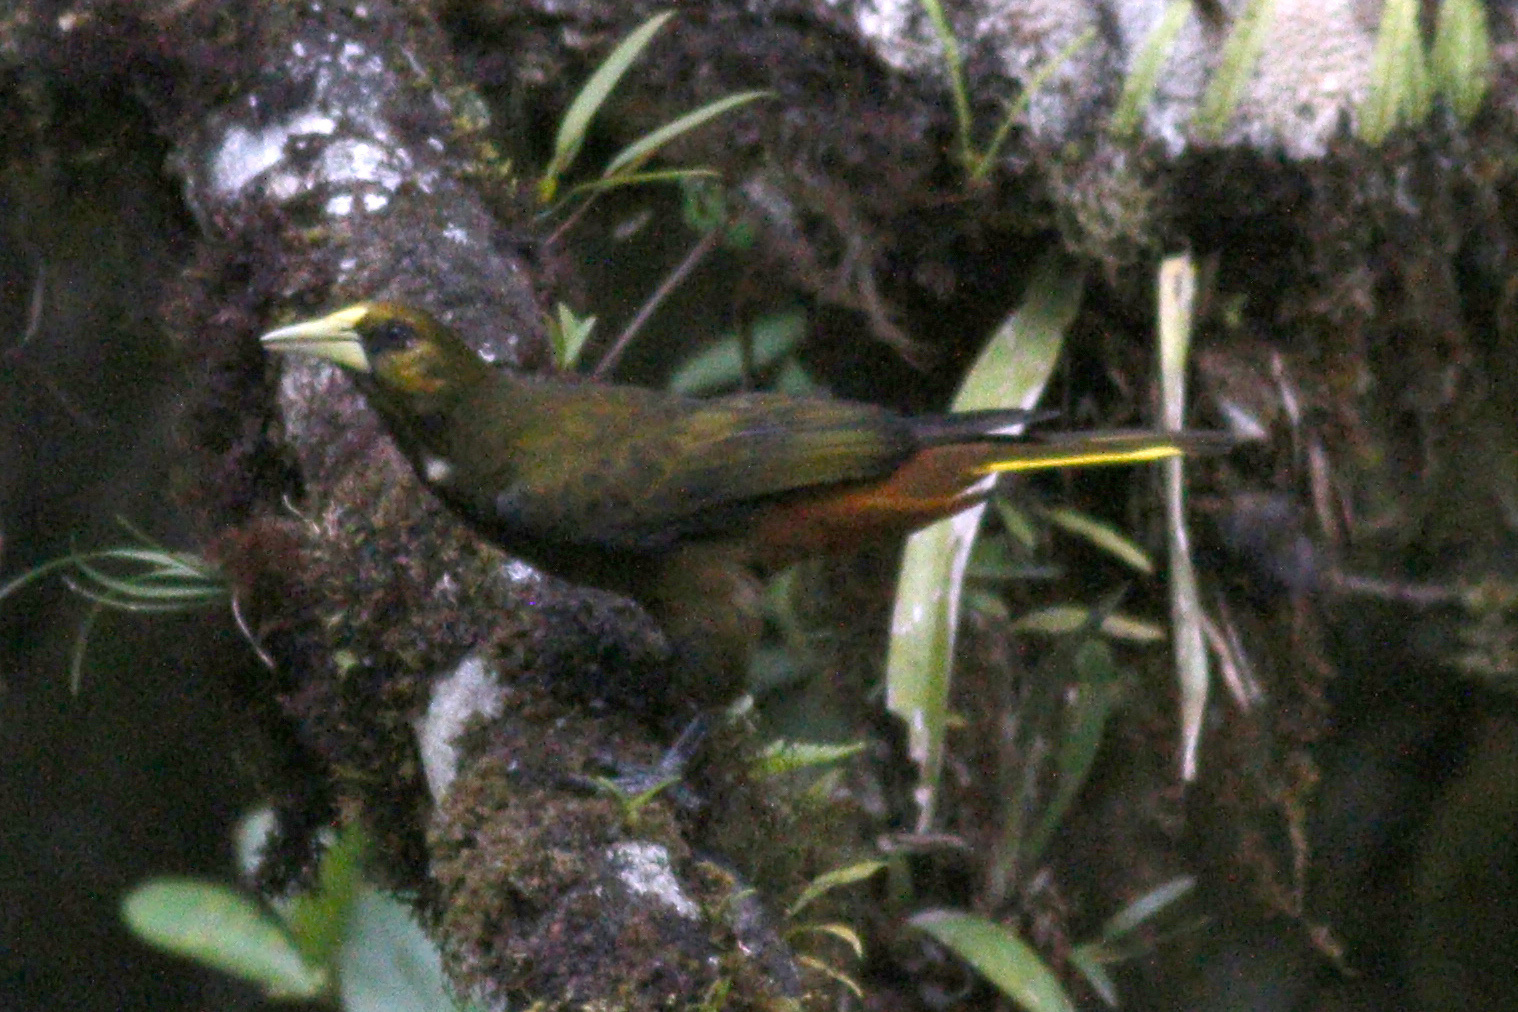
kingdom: Animalia
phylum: Chordata
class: Aves
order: Passeriformes
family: Icteridae
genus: Psarocolius
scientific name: Psarocolius atrovirens
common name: Dusky-green oropendola
